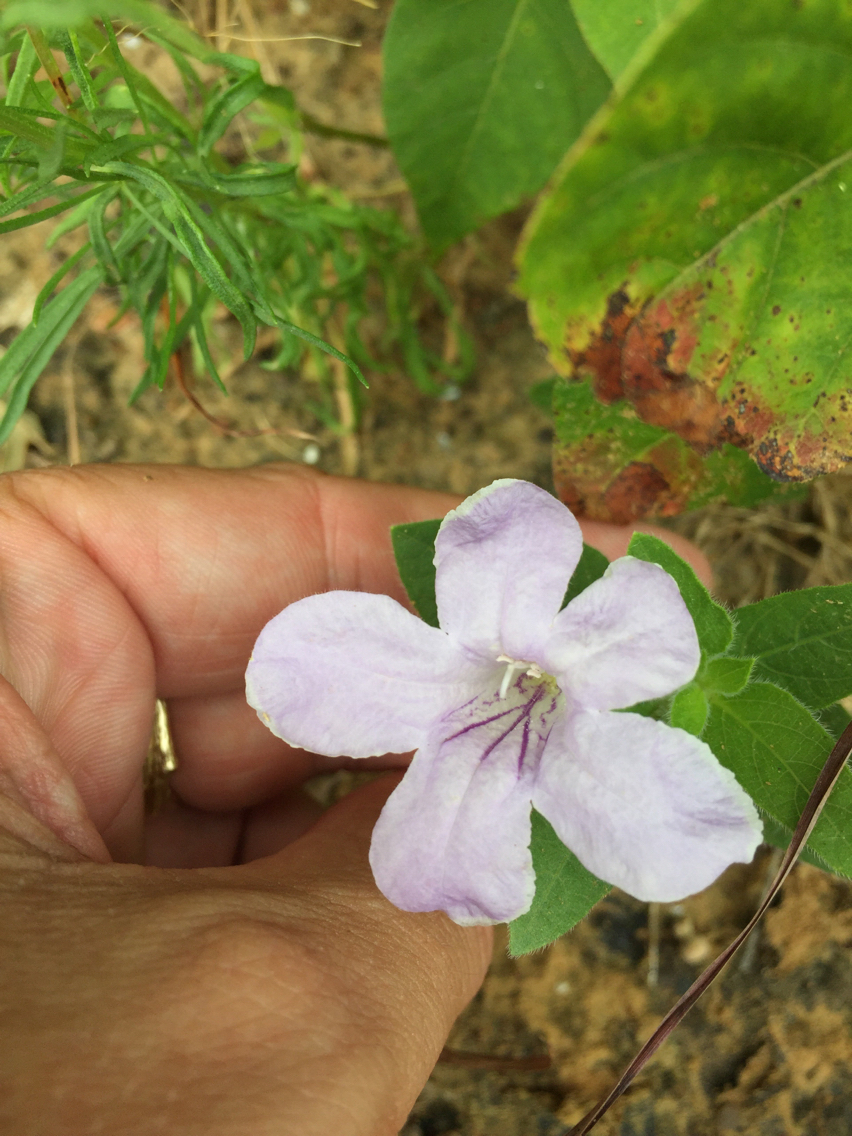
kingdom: Plantae
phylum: Tracheophyta
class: Magnoliopsida
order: Lamiales
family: Acanthaceae
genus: Ruellia
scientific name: Ruellia humilis
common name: Fringe-leaf ruellia
